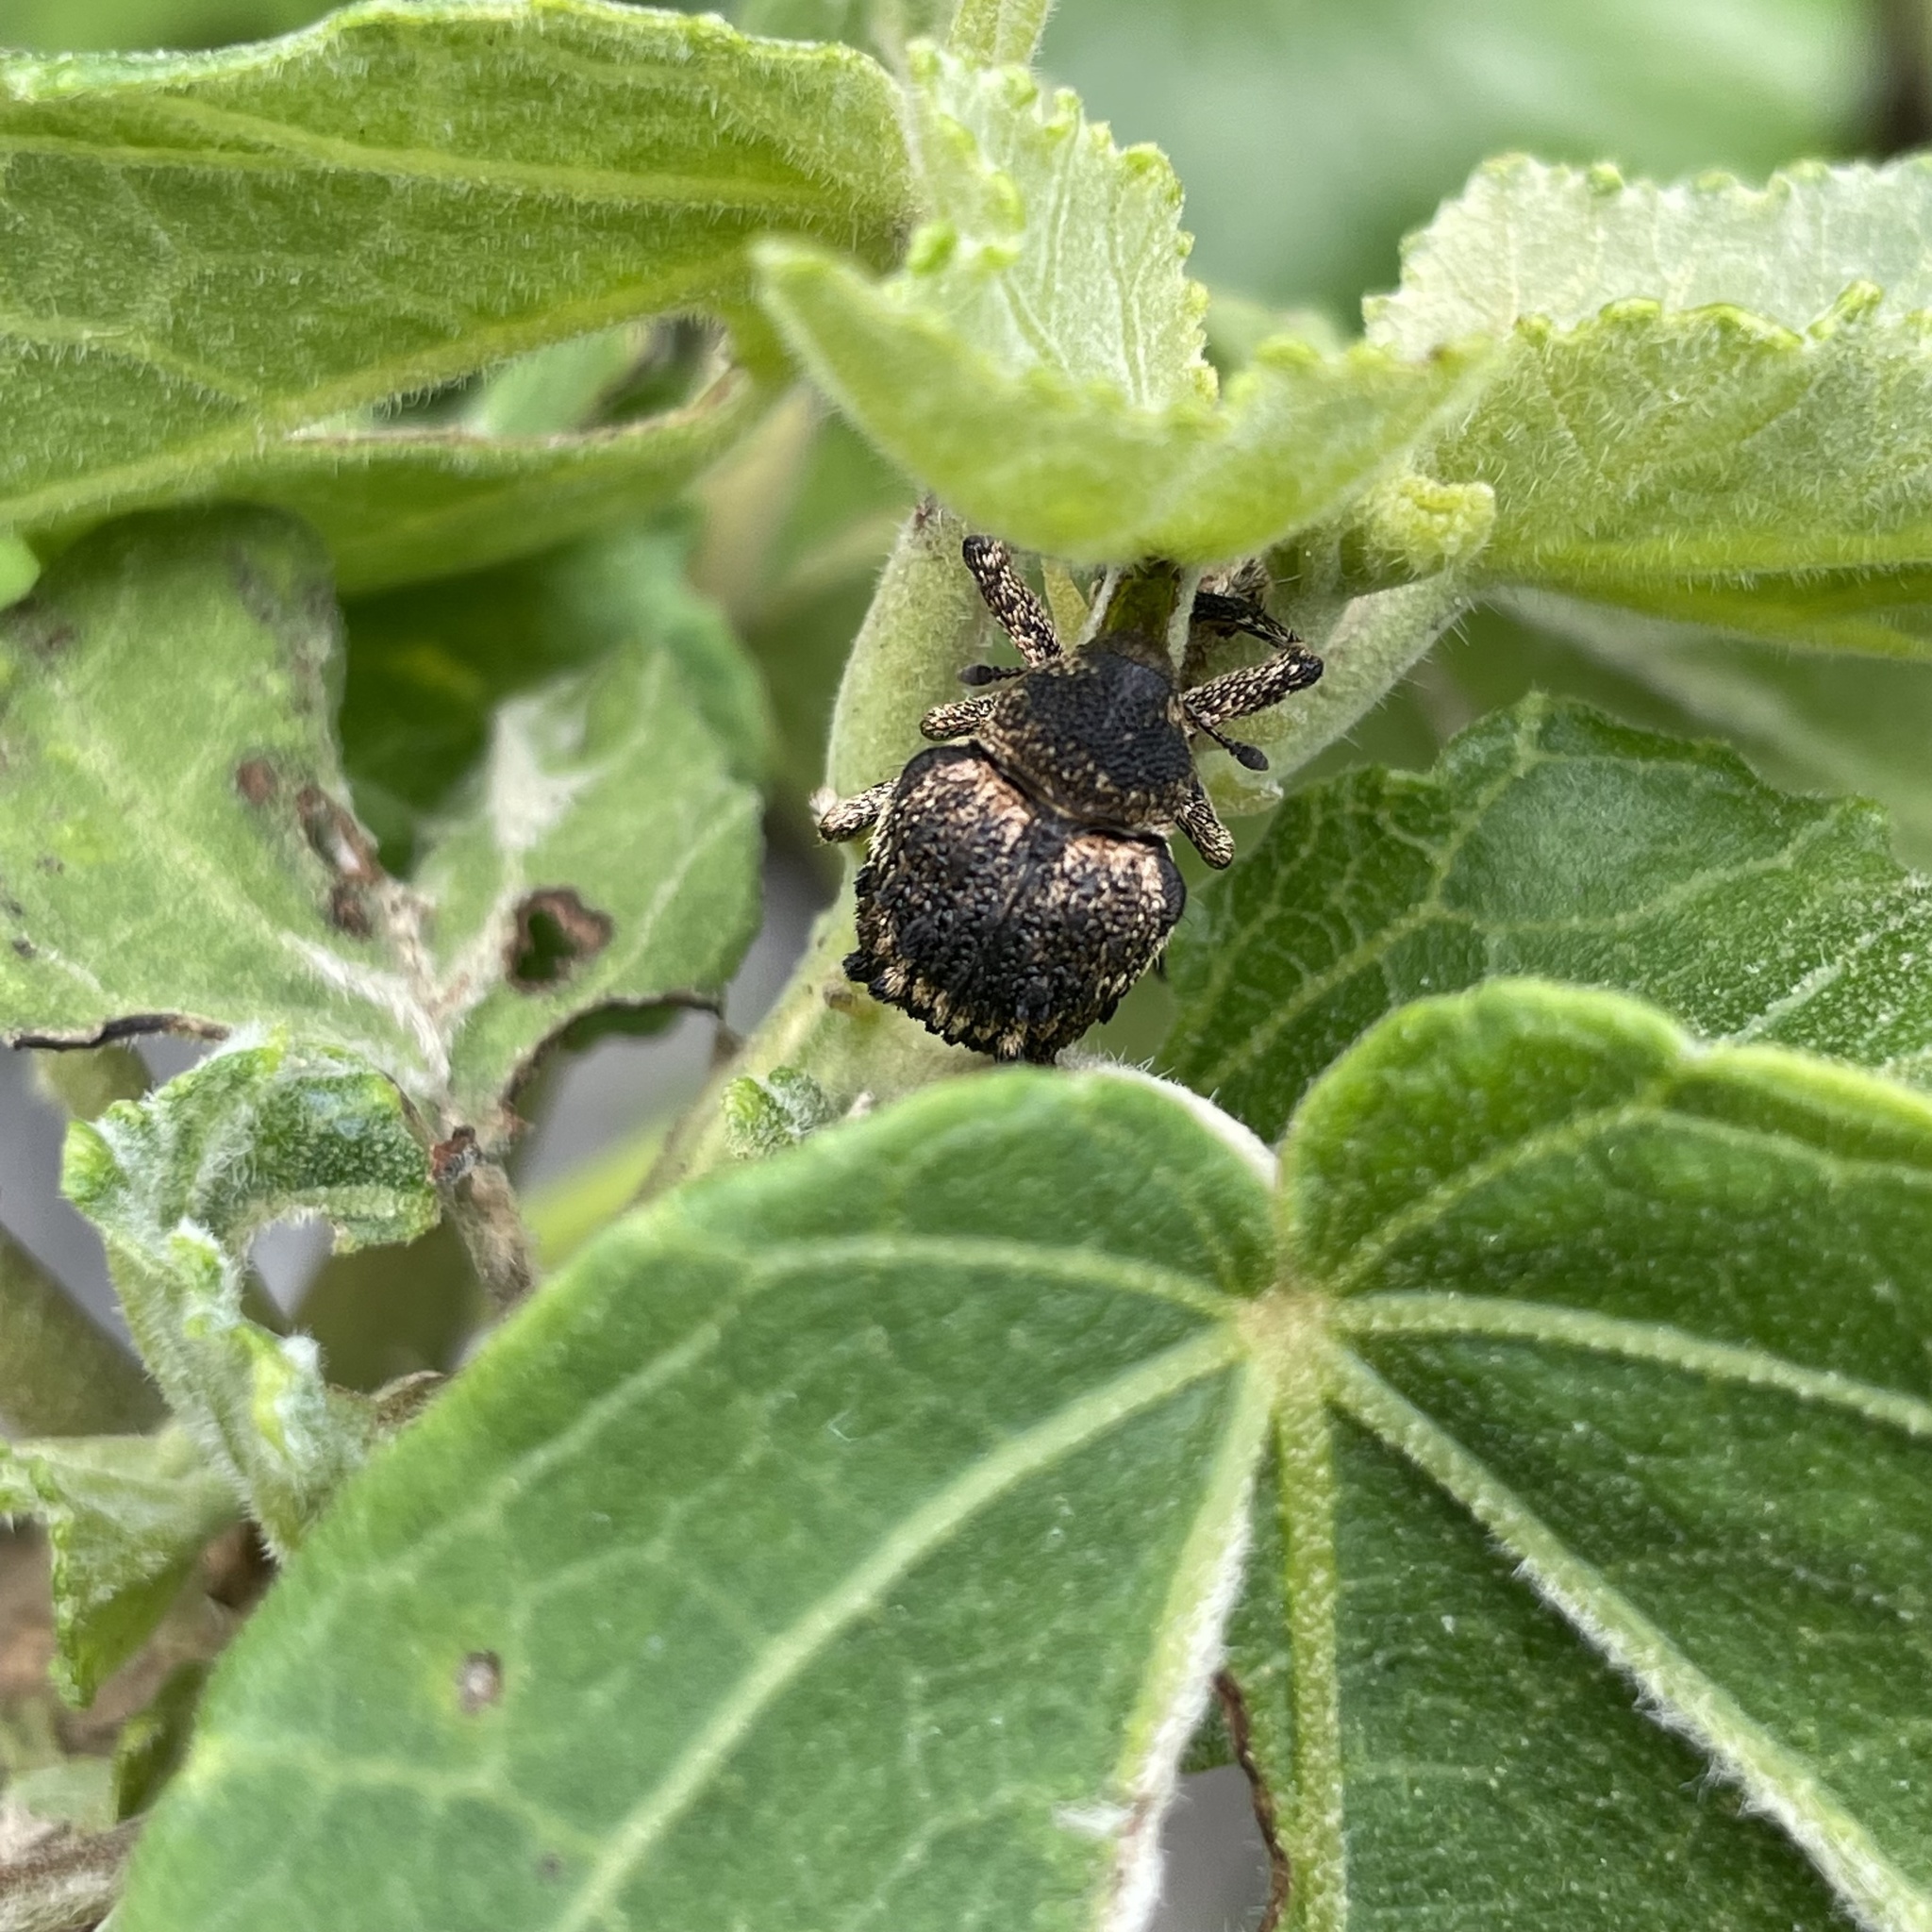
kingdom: Animalia
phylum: Arthropoda
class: Insecta
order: Coleoptera
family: Brachyceridae
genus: Desmidophorus
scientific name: Desmidophorus crassus
